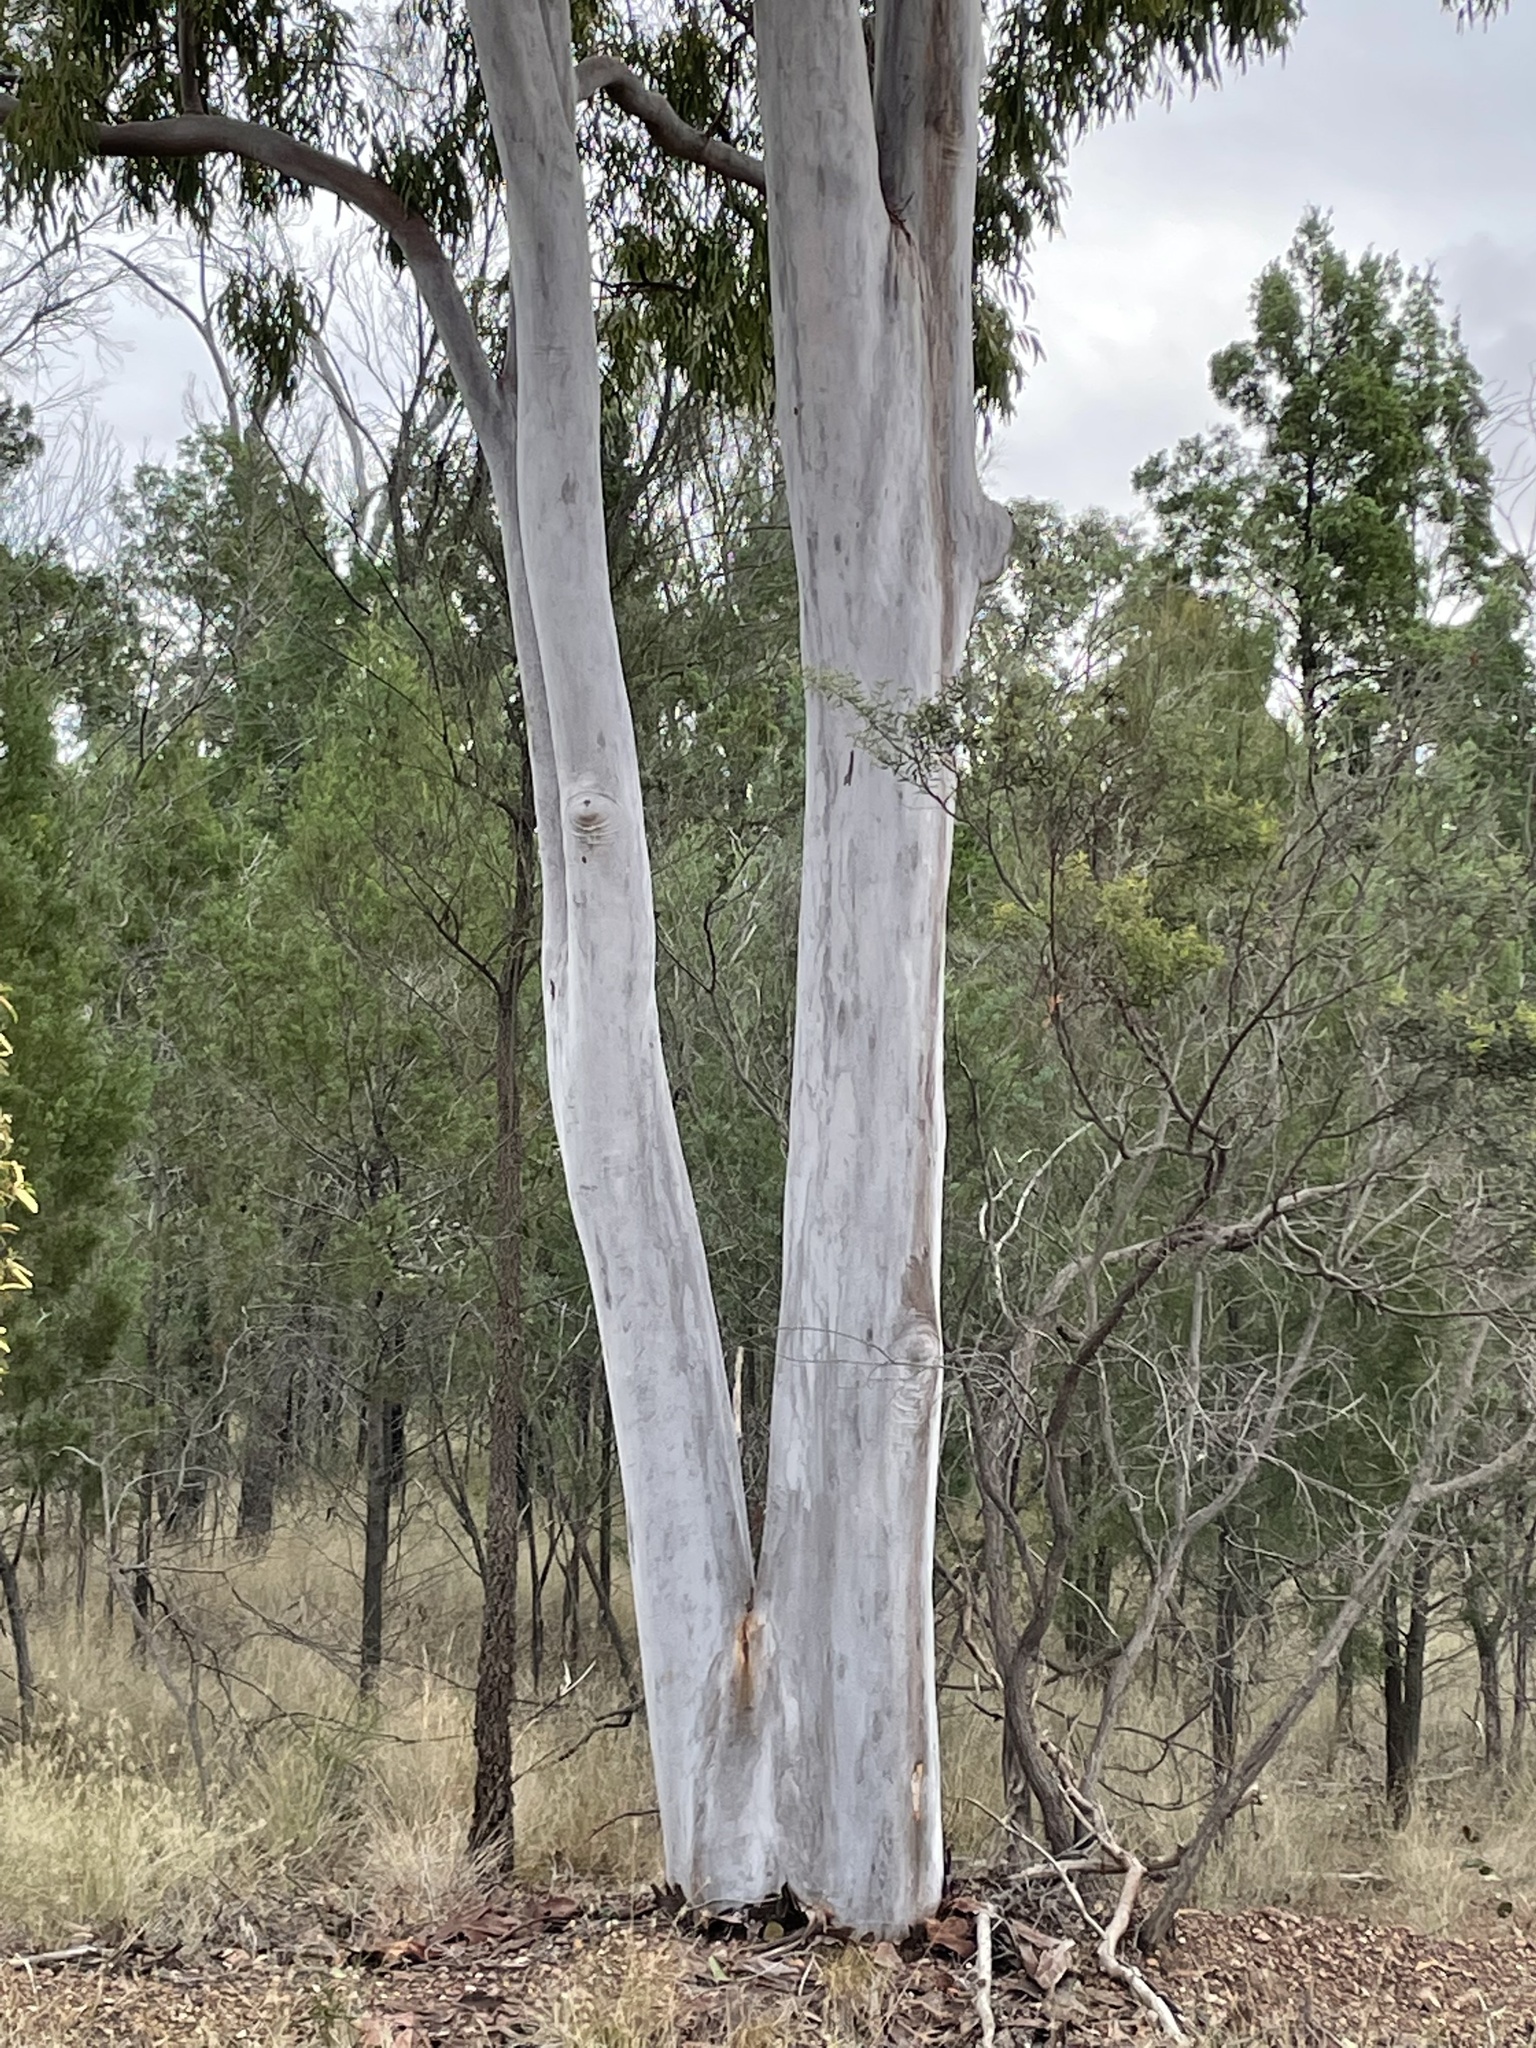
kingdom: Plantae
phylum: Tracheophyta
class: Magnoliopsida
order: Myrtales
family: Myrtaceae
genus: Eucalyptus
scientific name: Eucalyptus chloroclada
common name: Baradine red gum
